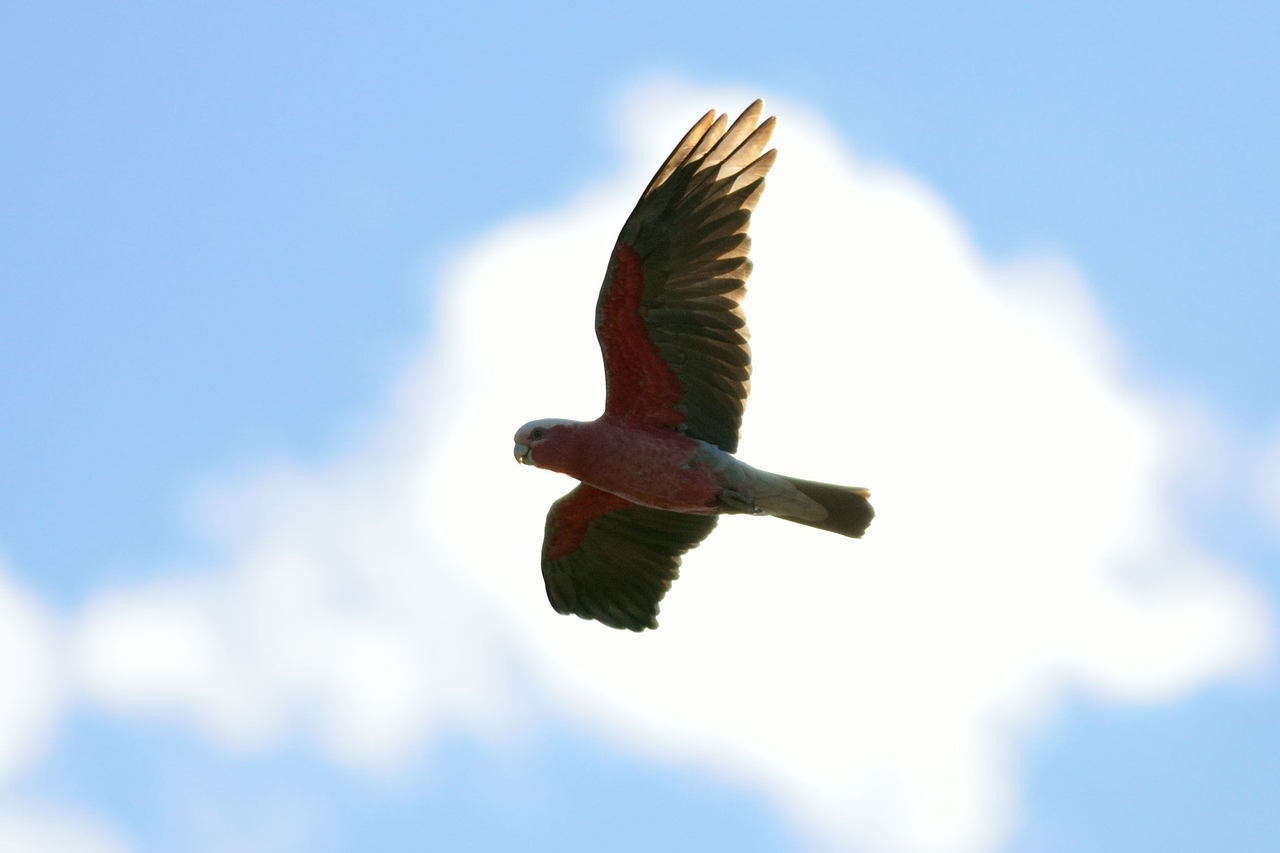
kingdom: Animalia
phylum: Chordata
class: Aves
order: Psittaciformes
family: Psittacidae
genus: Eolophus
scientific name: Eolophus roseicapilla
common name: Galah
